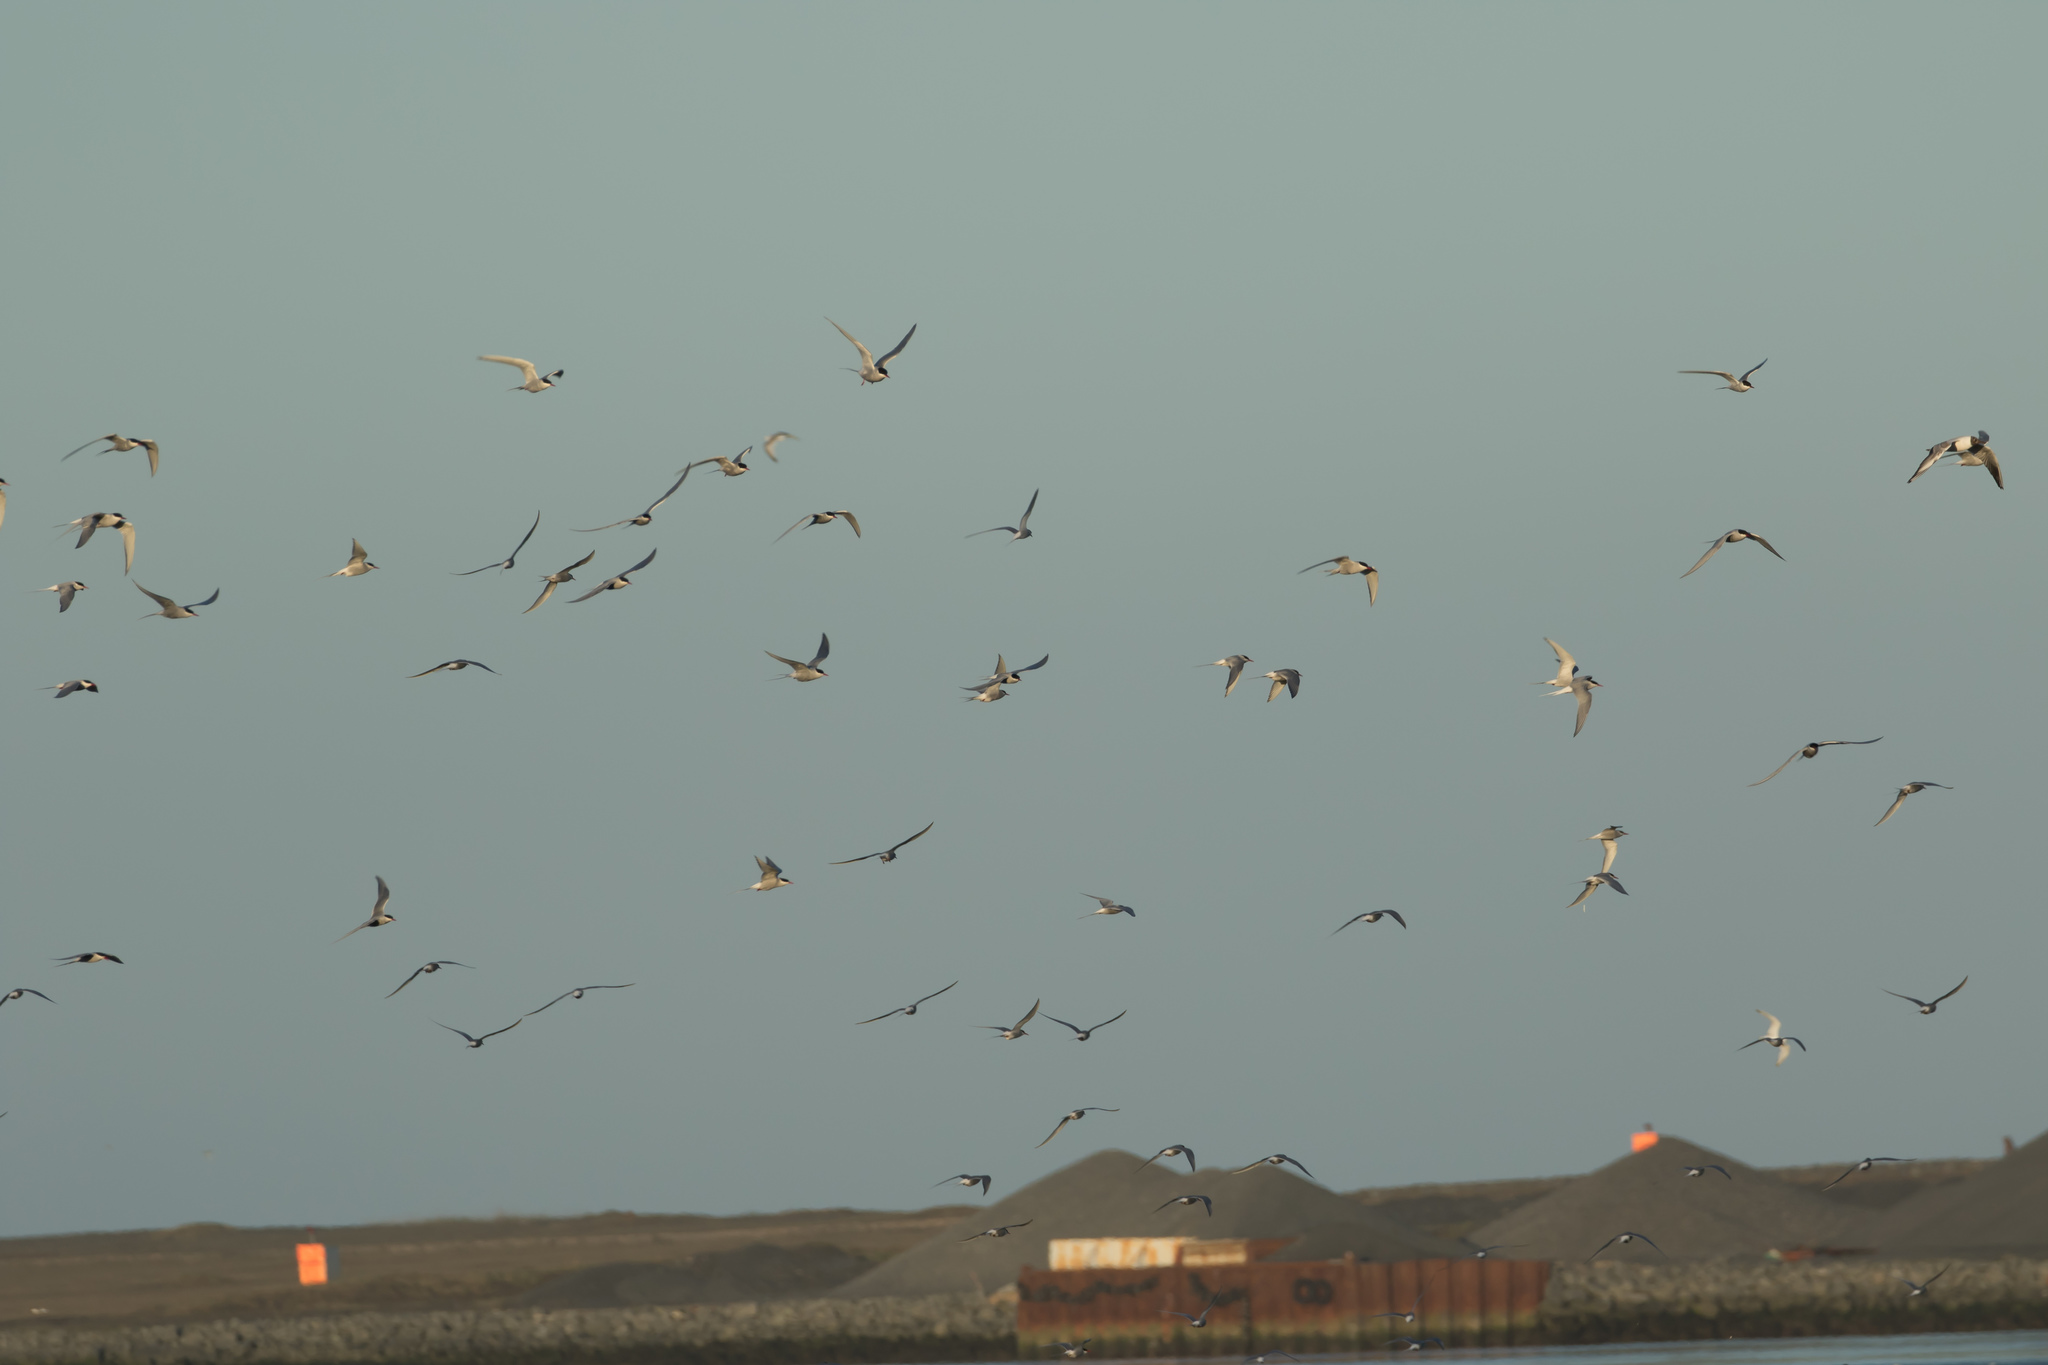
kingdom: Animalia
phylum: Chordata
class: Aves
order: Charadriiformes
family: Laridae
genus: Sterna
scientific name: Sterna paradisaea
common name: Arctic tern
